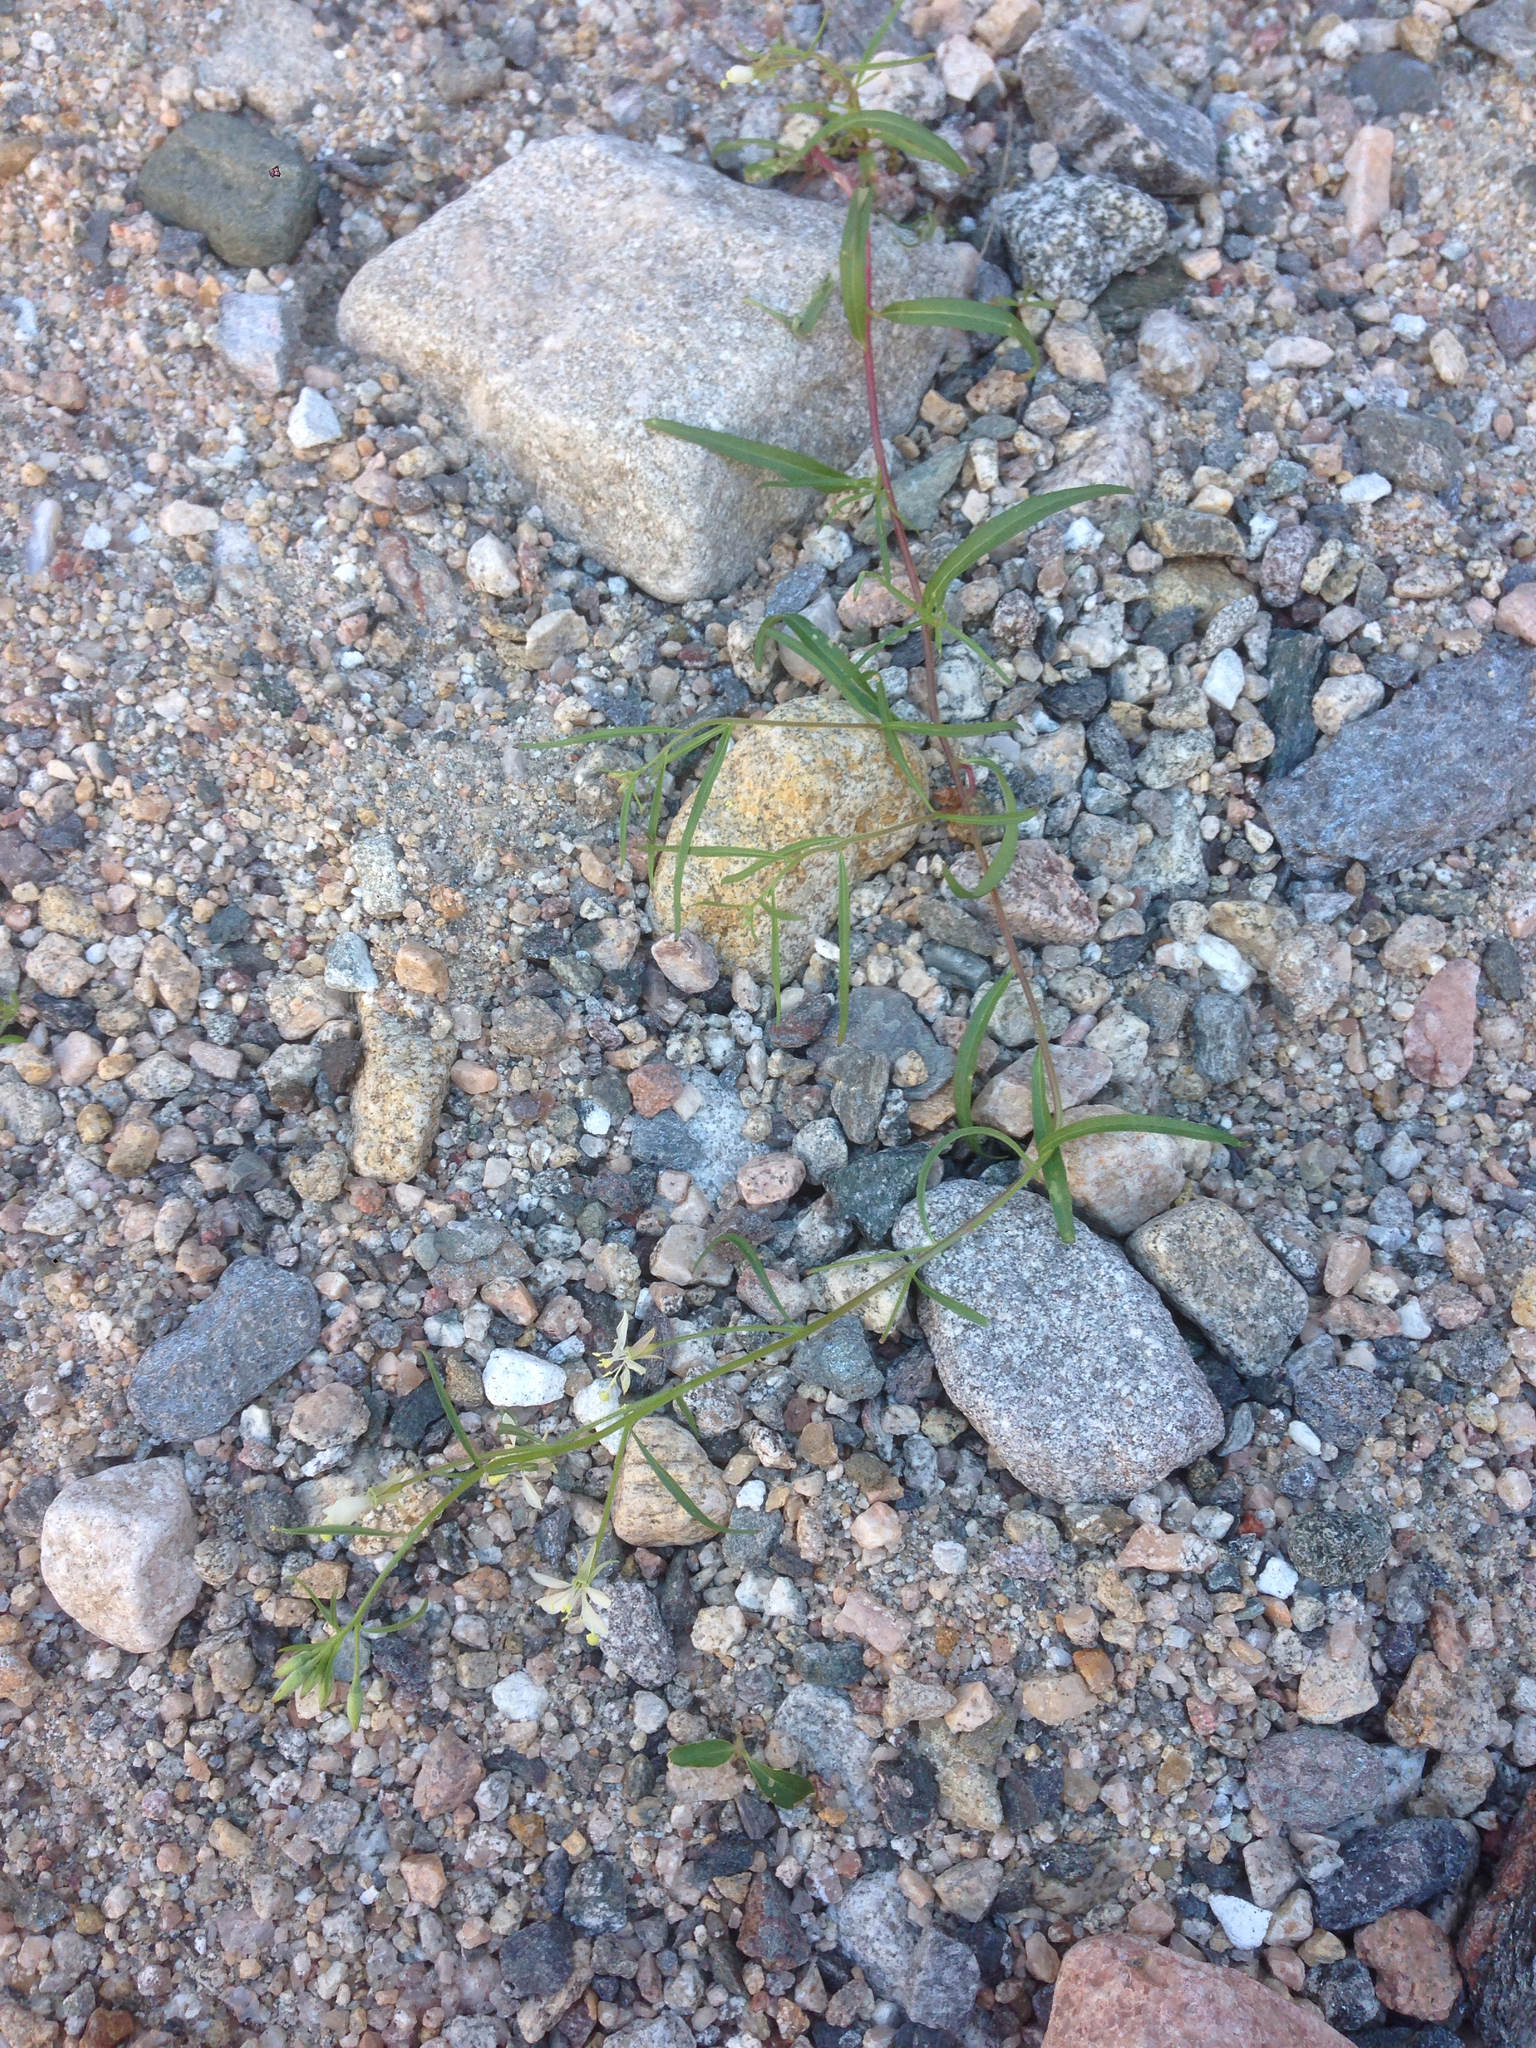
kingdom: Plantae
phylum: Tracheophyta
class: Magnoliopsida
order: Myrtales
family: Onagraceae
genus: Eremothera
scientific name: Eremothera refracta
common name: Narrowleaf suncup
